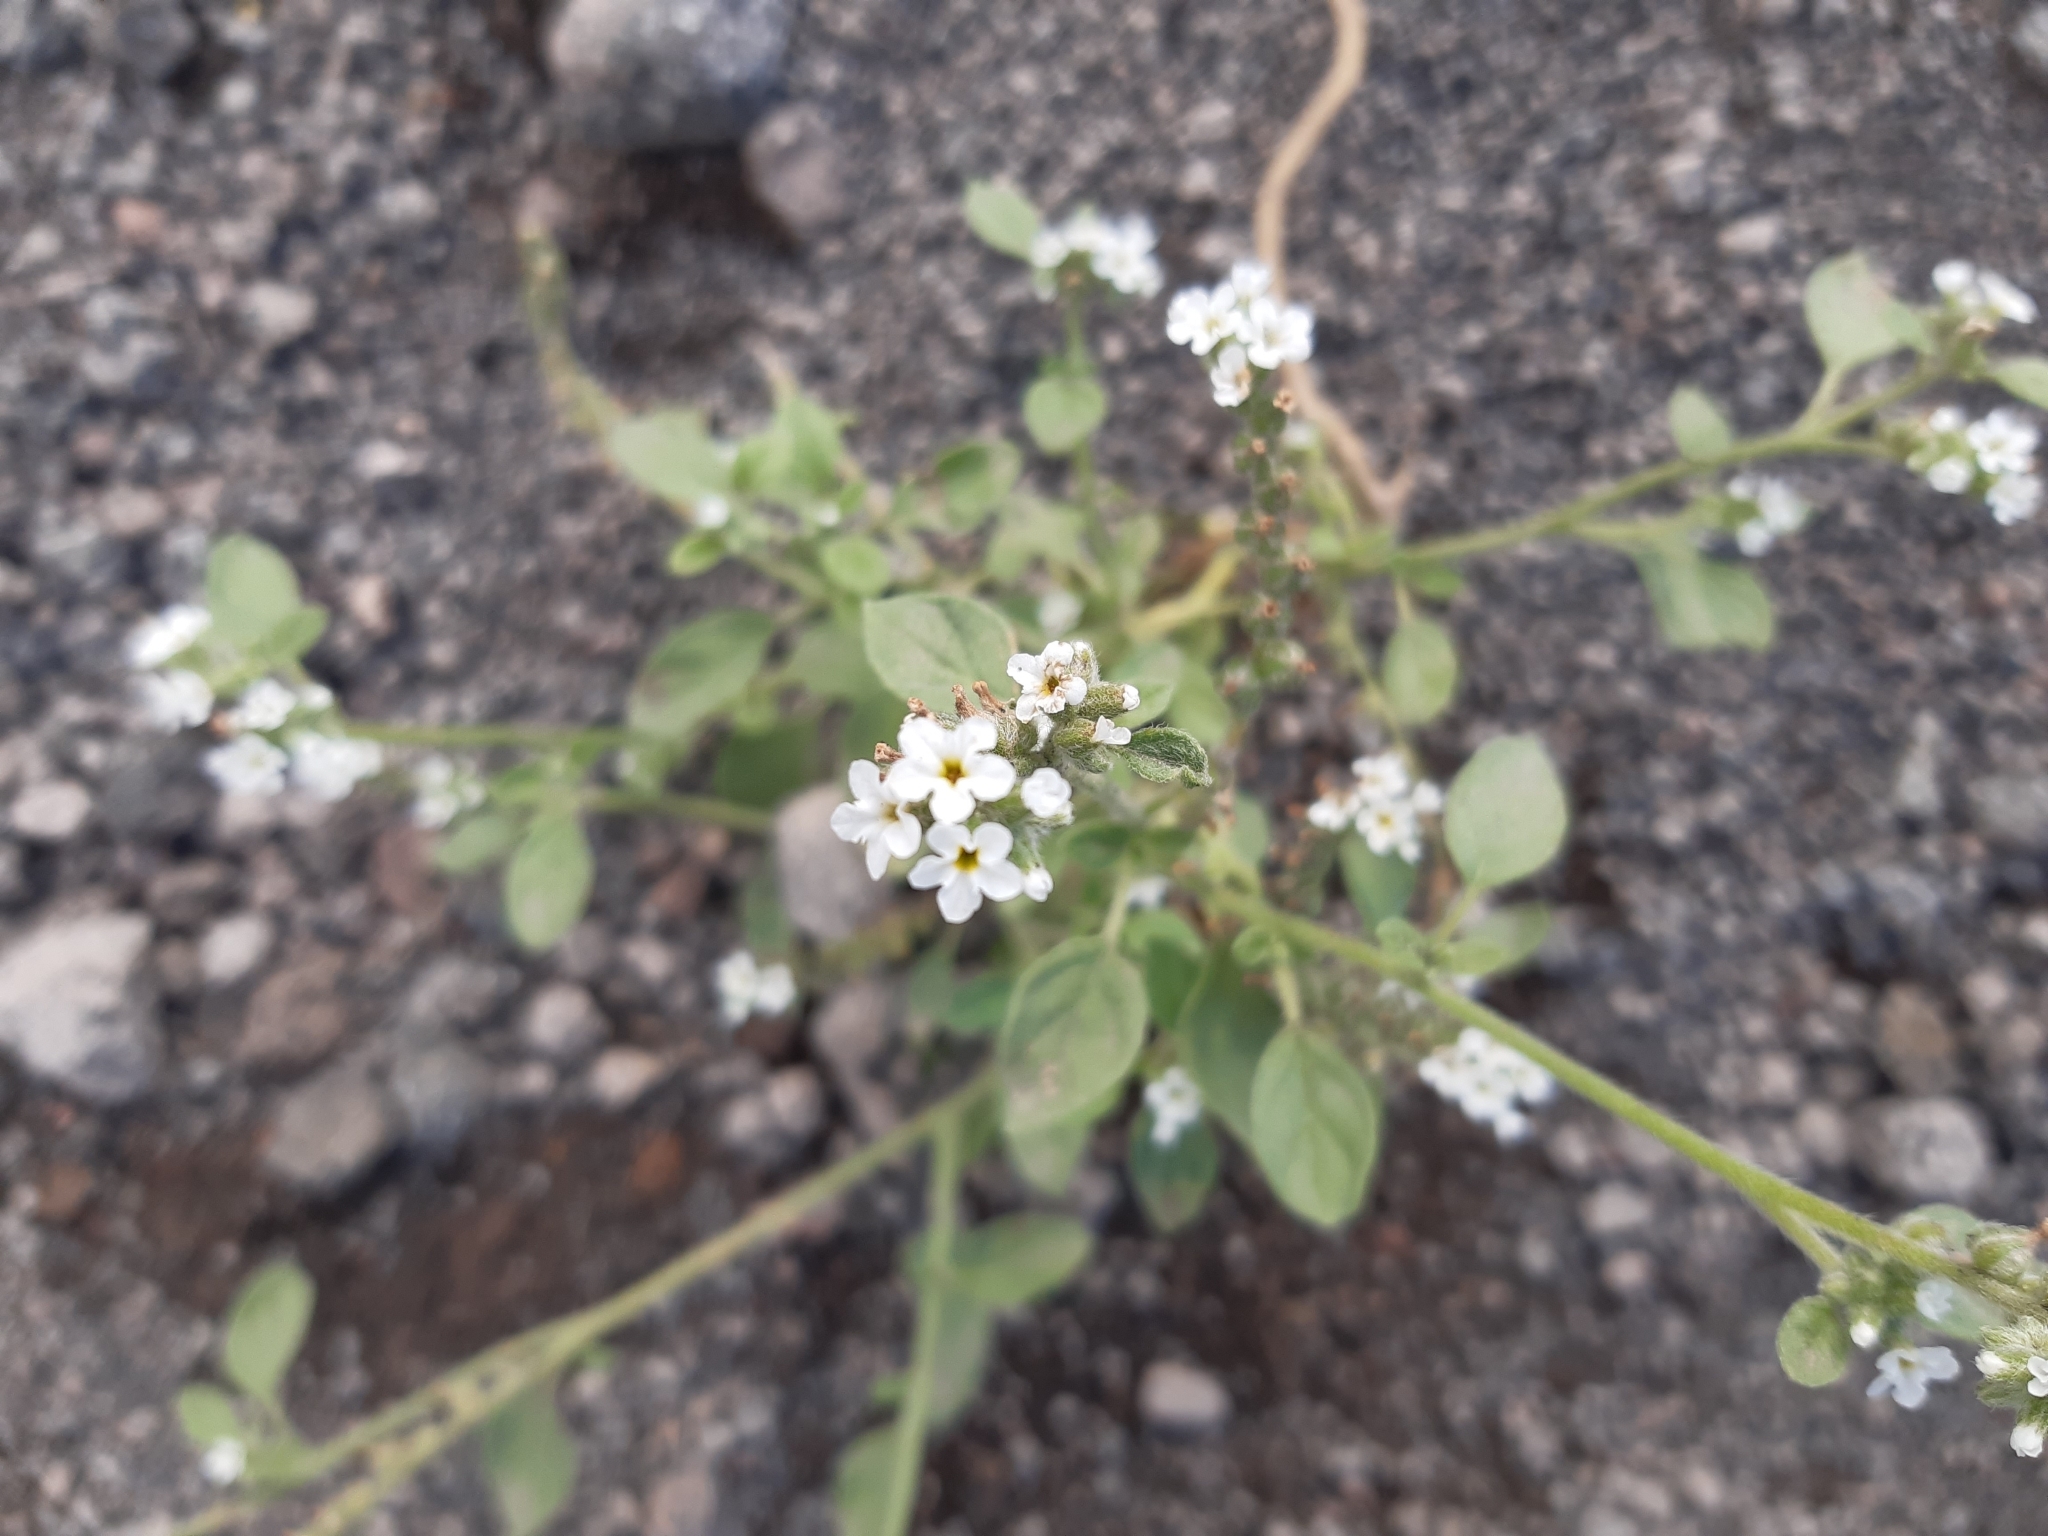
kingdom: Plantae
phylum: Tracheophyta
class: Magnoliopsida
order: Boraginales
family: Heliotropiaceae
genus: Heliotropium
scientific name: Heliotropium europaeum
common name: European heliotrope
